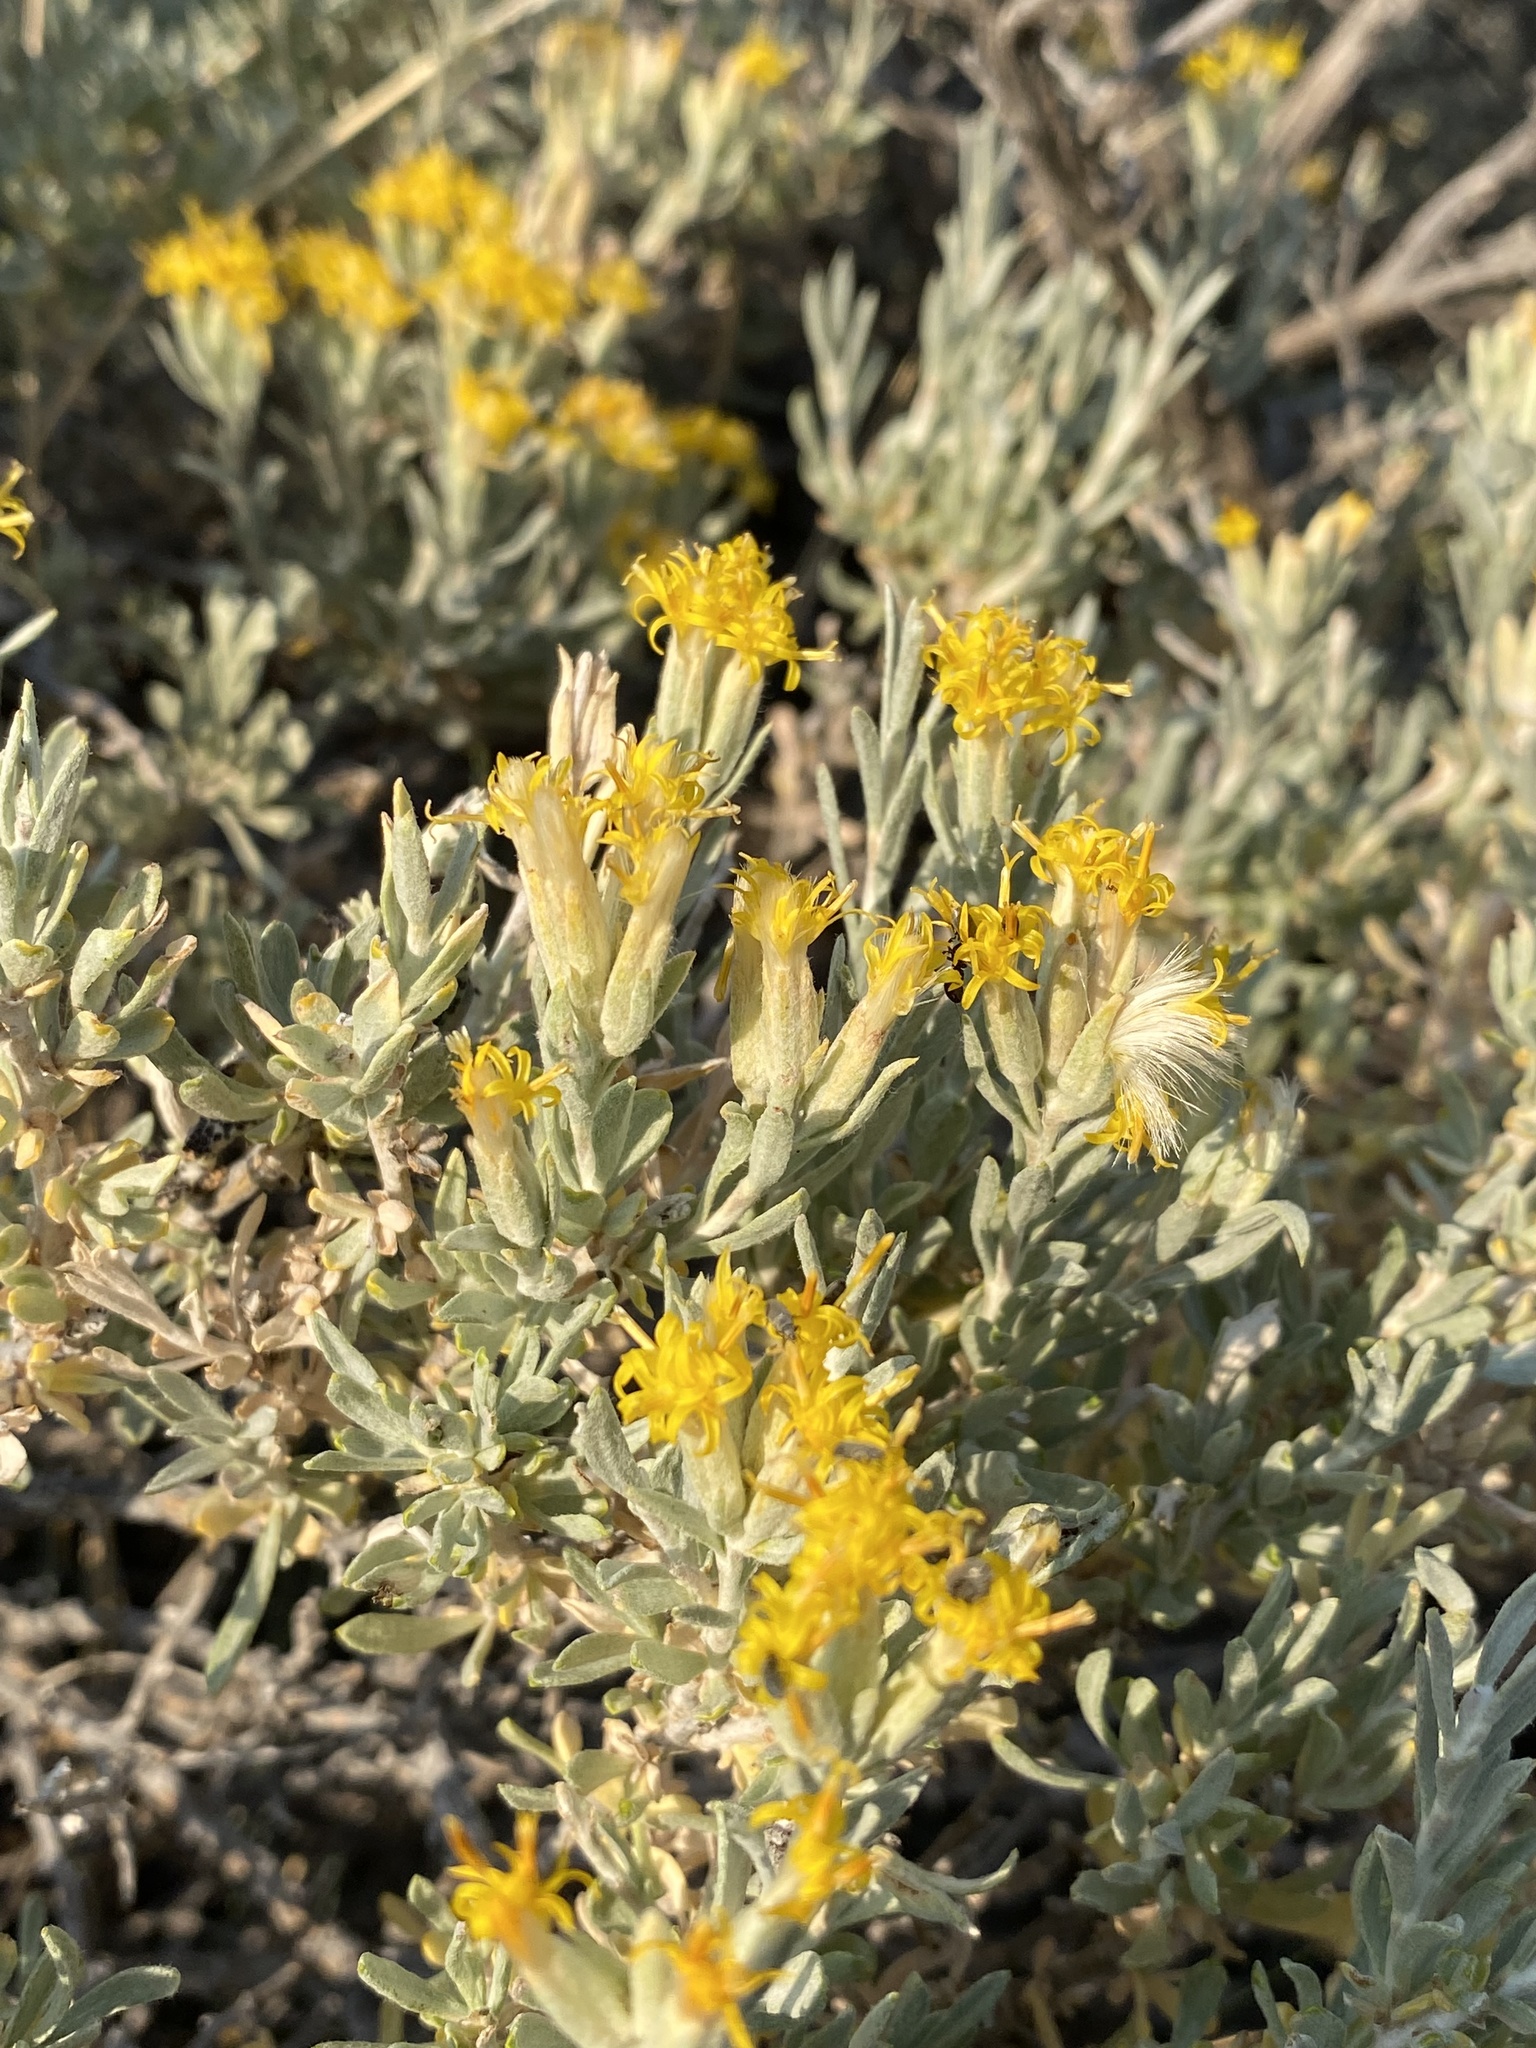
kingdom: Plantae
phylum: Tracheophyta
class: Magnoliopsida
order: Asterales
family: Asteraceae
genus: Tetradymia
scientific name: Tetradymia canescens
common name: Spineless horsebrush
